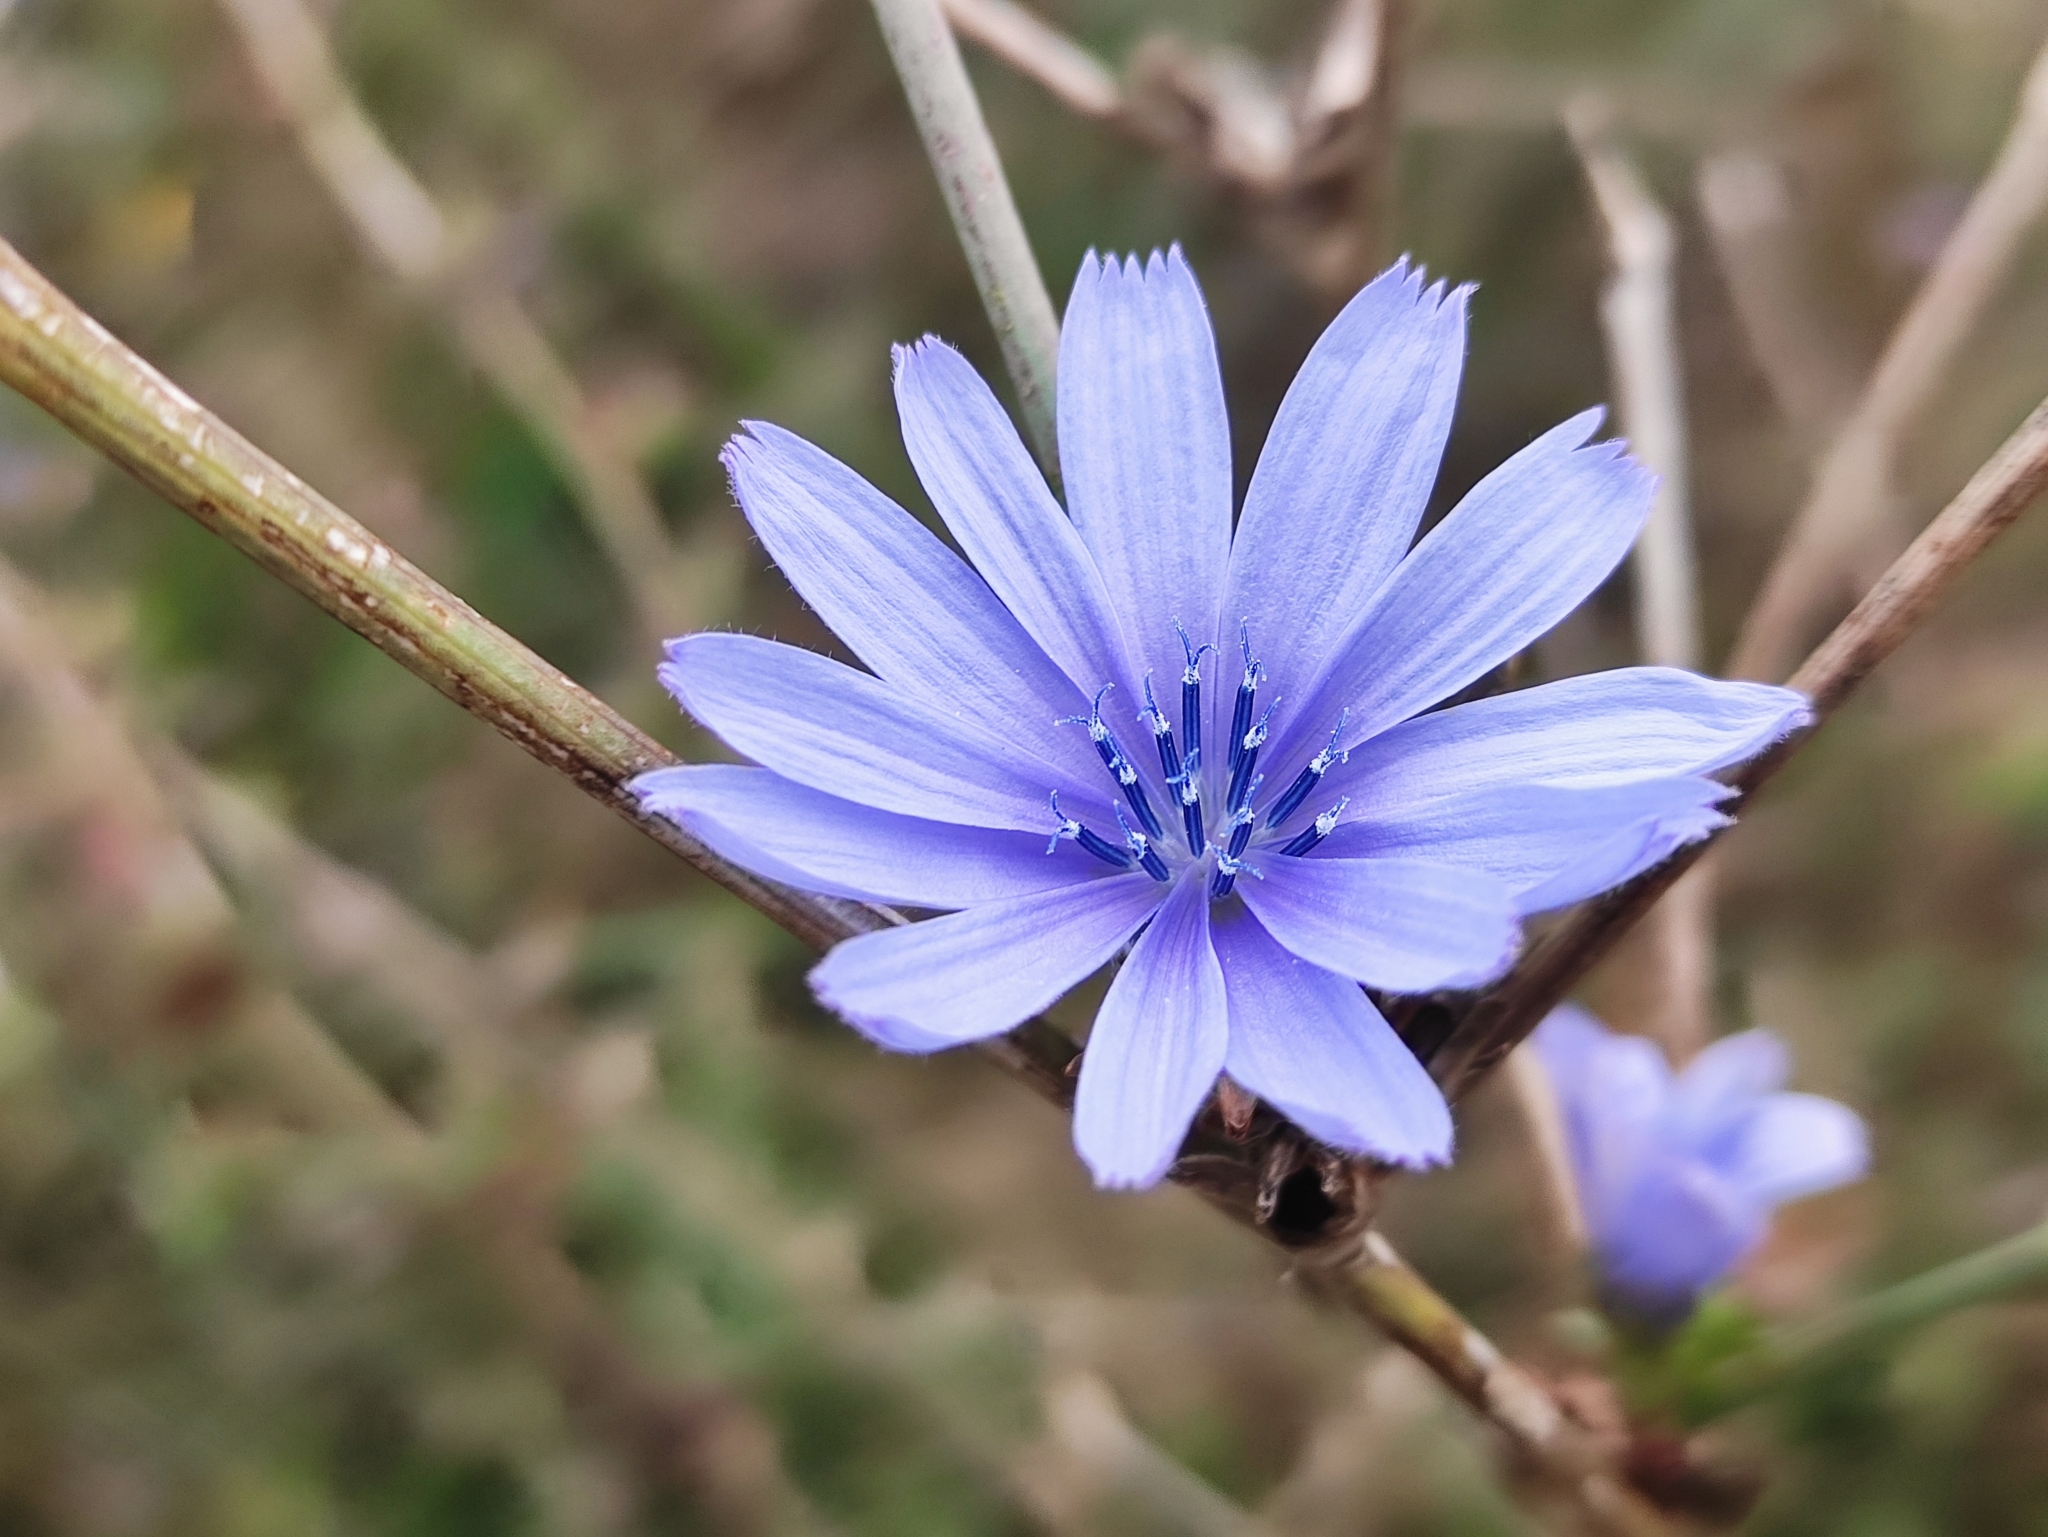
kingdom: Plantae
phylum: Tracheophyta
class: Magnoliopsida
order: Asterales
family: Asteraceae
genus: Cichorium
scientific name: Cichorium intybus
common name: Chicory
